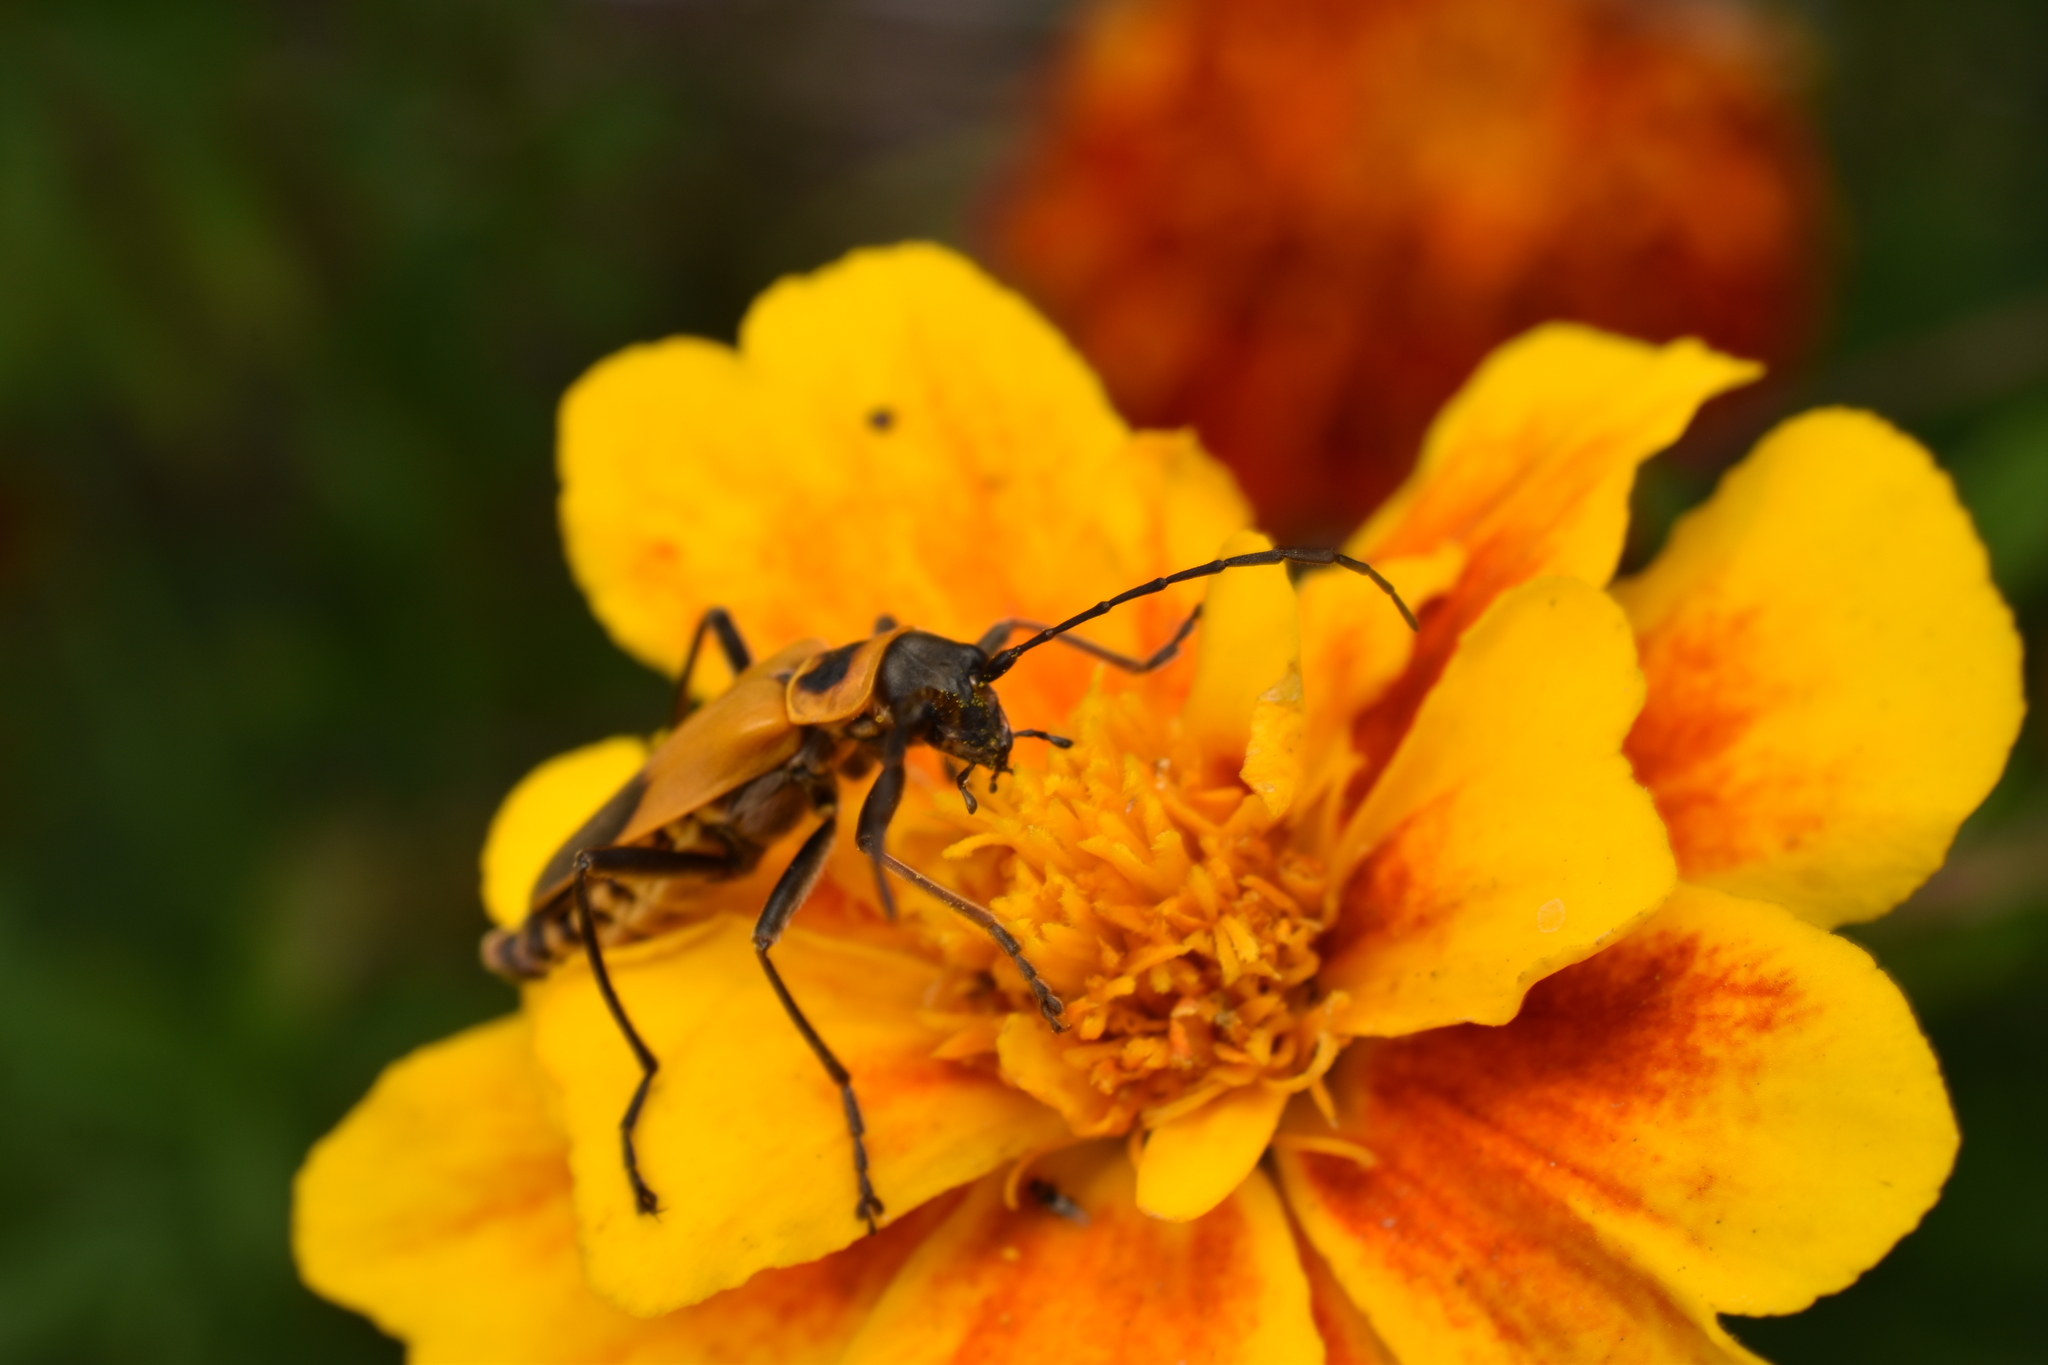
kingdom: Animalia
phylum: Arthropoda
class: Insecta
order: Coleoptera
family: Cantharidae
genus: Chauliognathus
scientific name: Chauliognathus pensylvanicus
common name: Goldenrod soldier beetle
